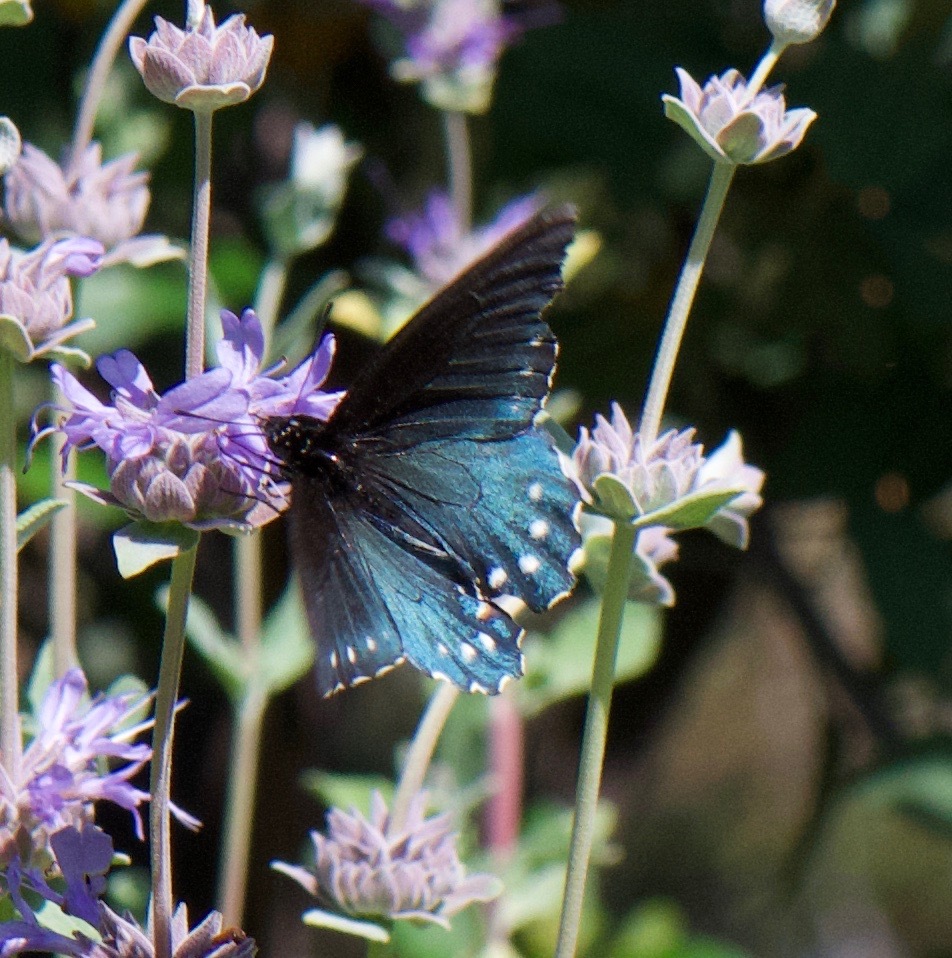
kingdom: Animalia
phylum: Arthropoda
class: Insecta
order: Lepidoptera
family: Papilionidae
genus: Battus
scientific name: Battus philenor
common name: Pipevine swallowtail
